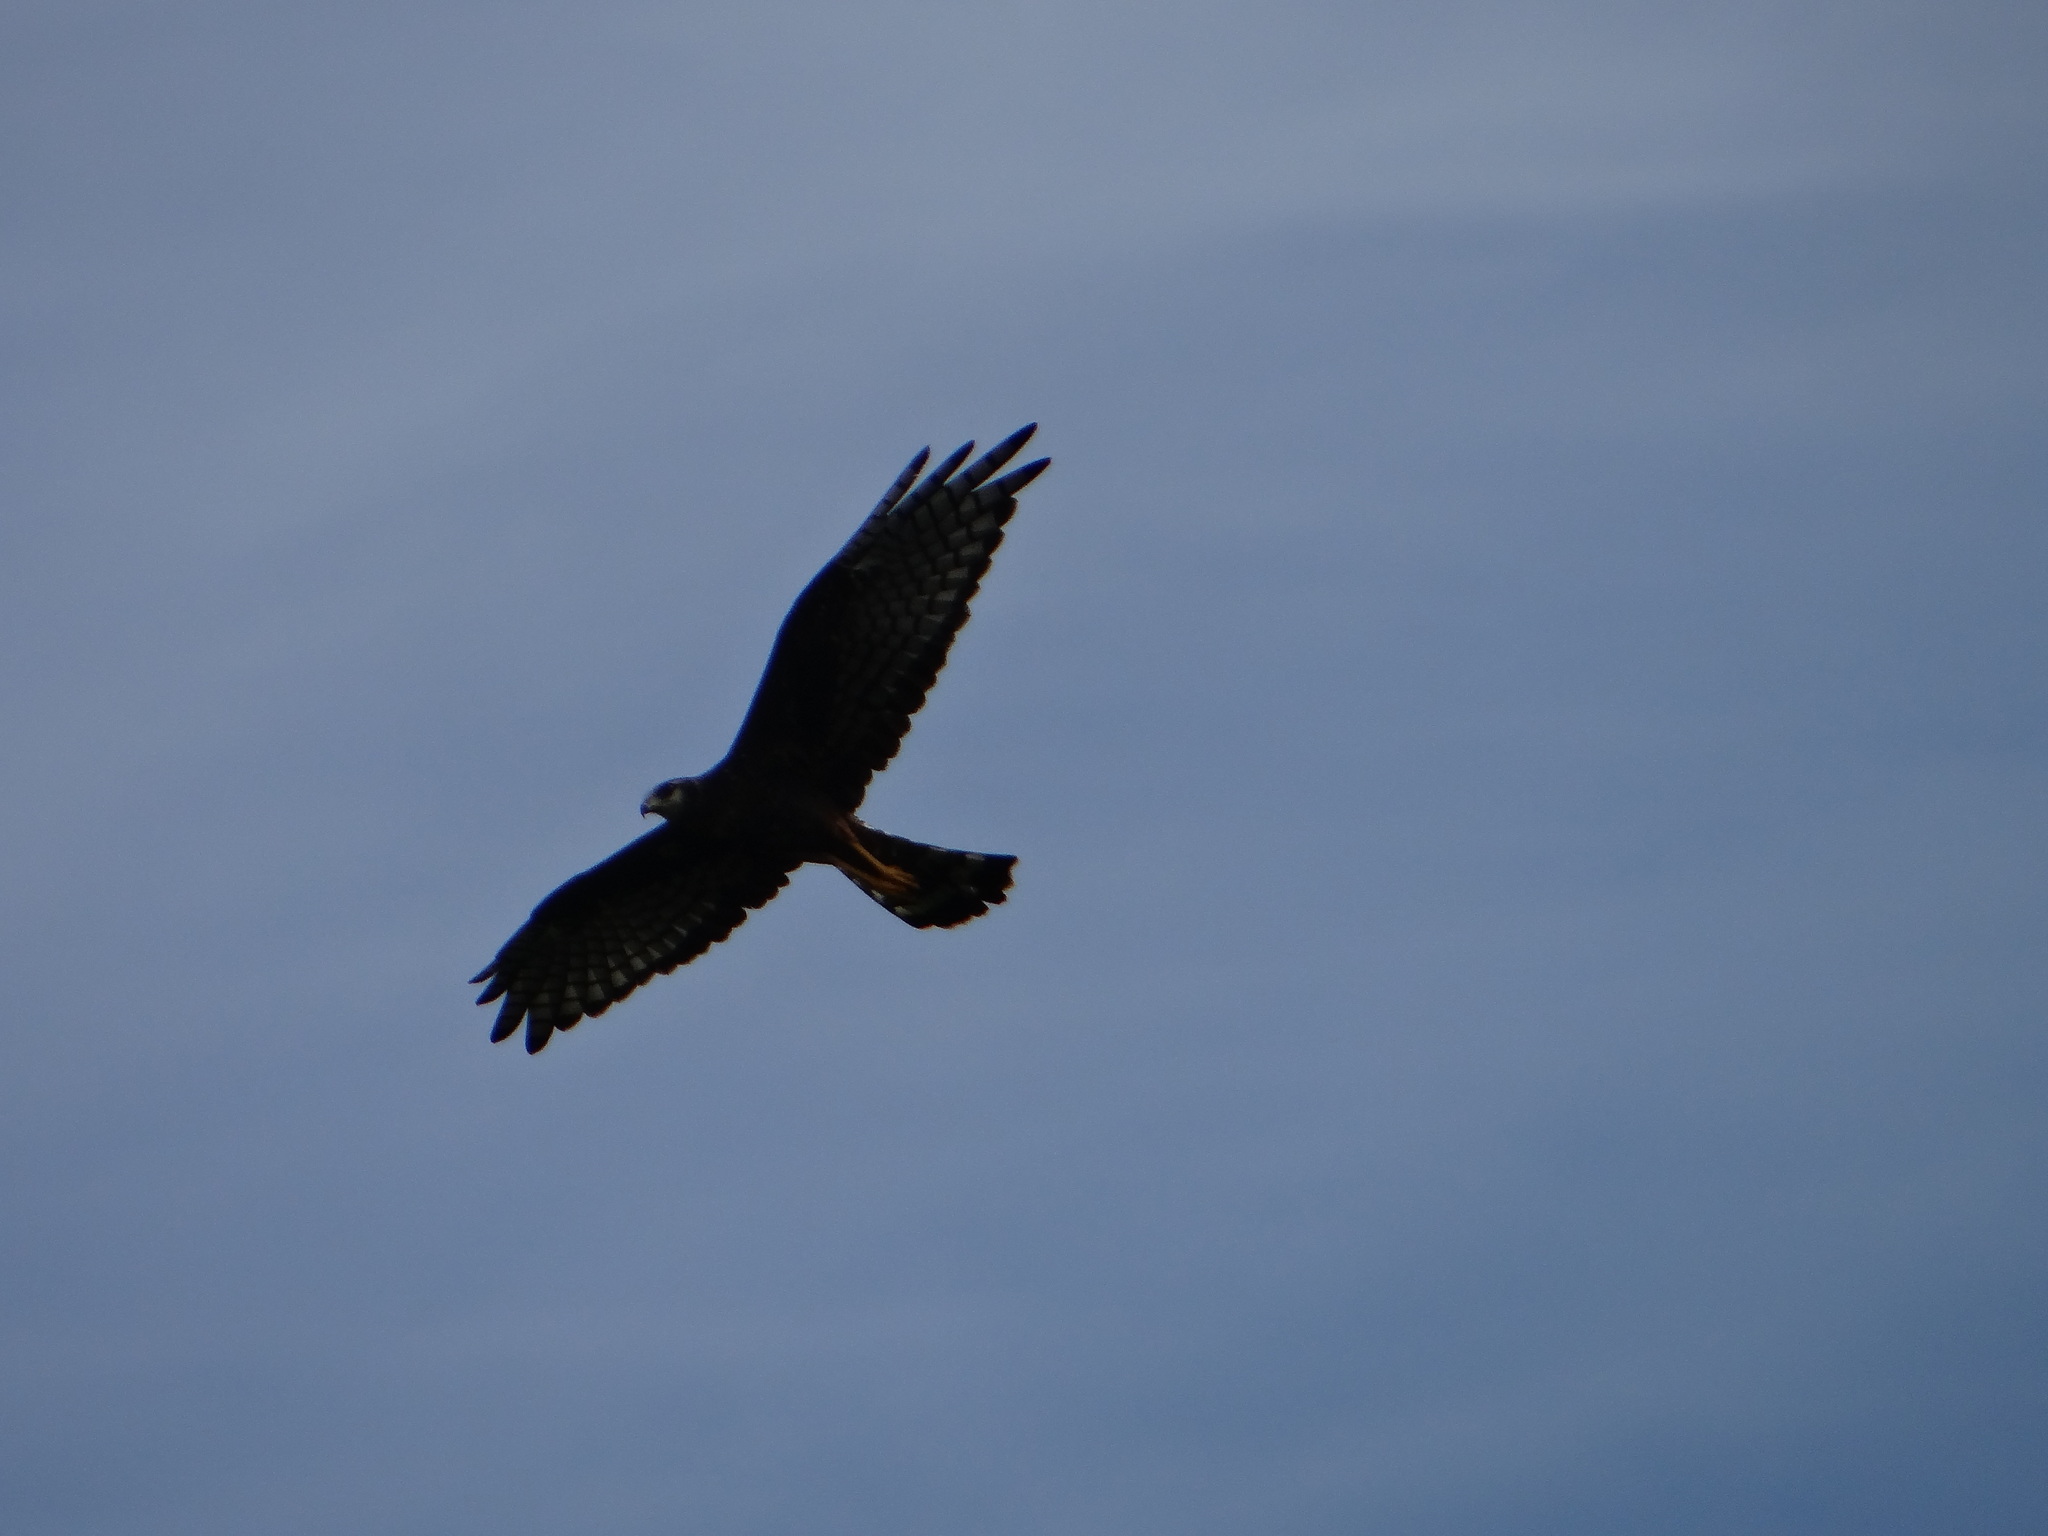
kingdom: Animalia
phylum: Chordata
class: Aves
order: Accipitriformes
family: Accipitridae
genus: Circus
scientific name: Circus buffoni
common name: Long-winged harrier
